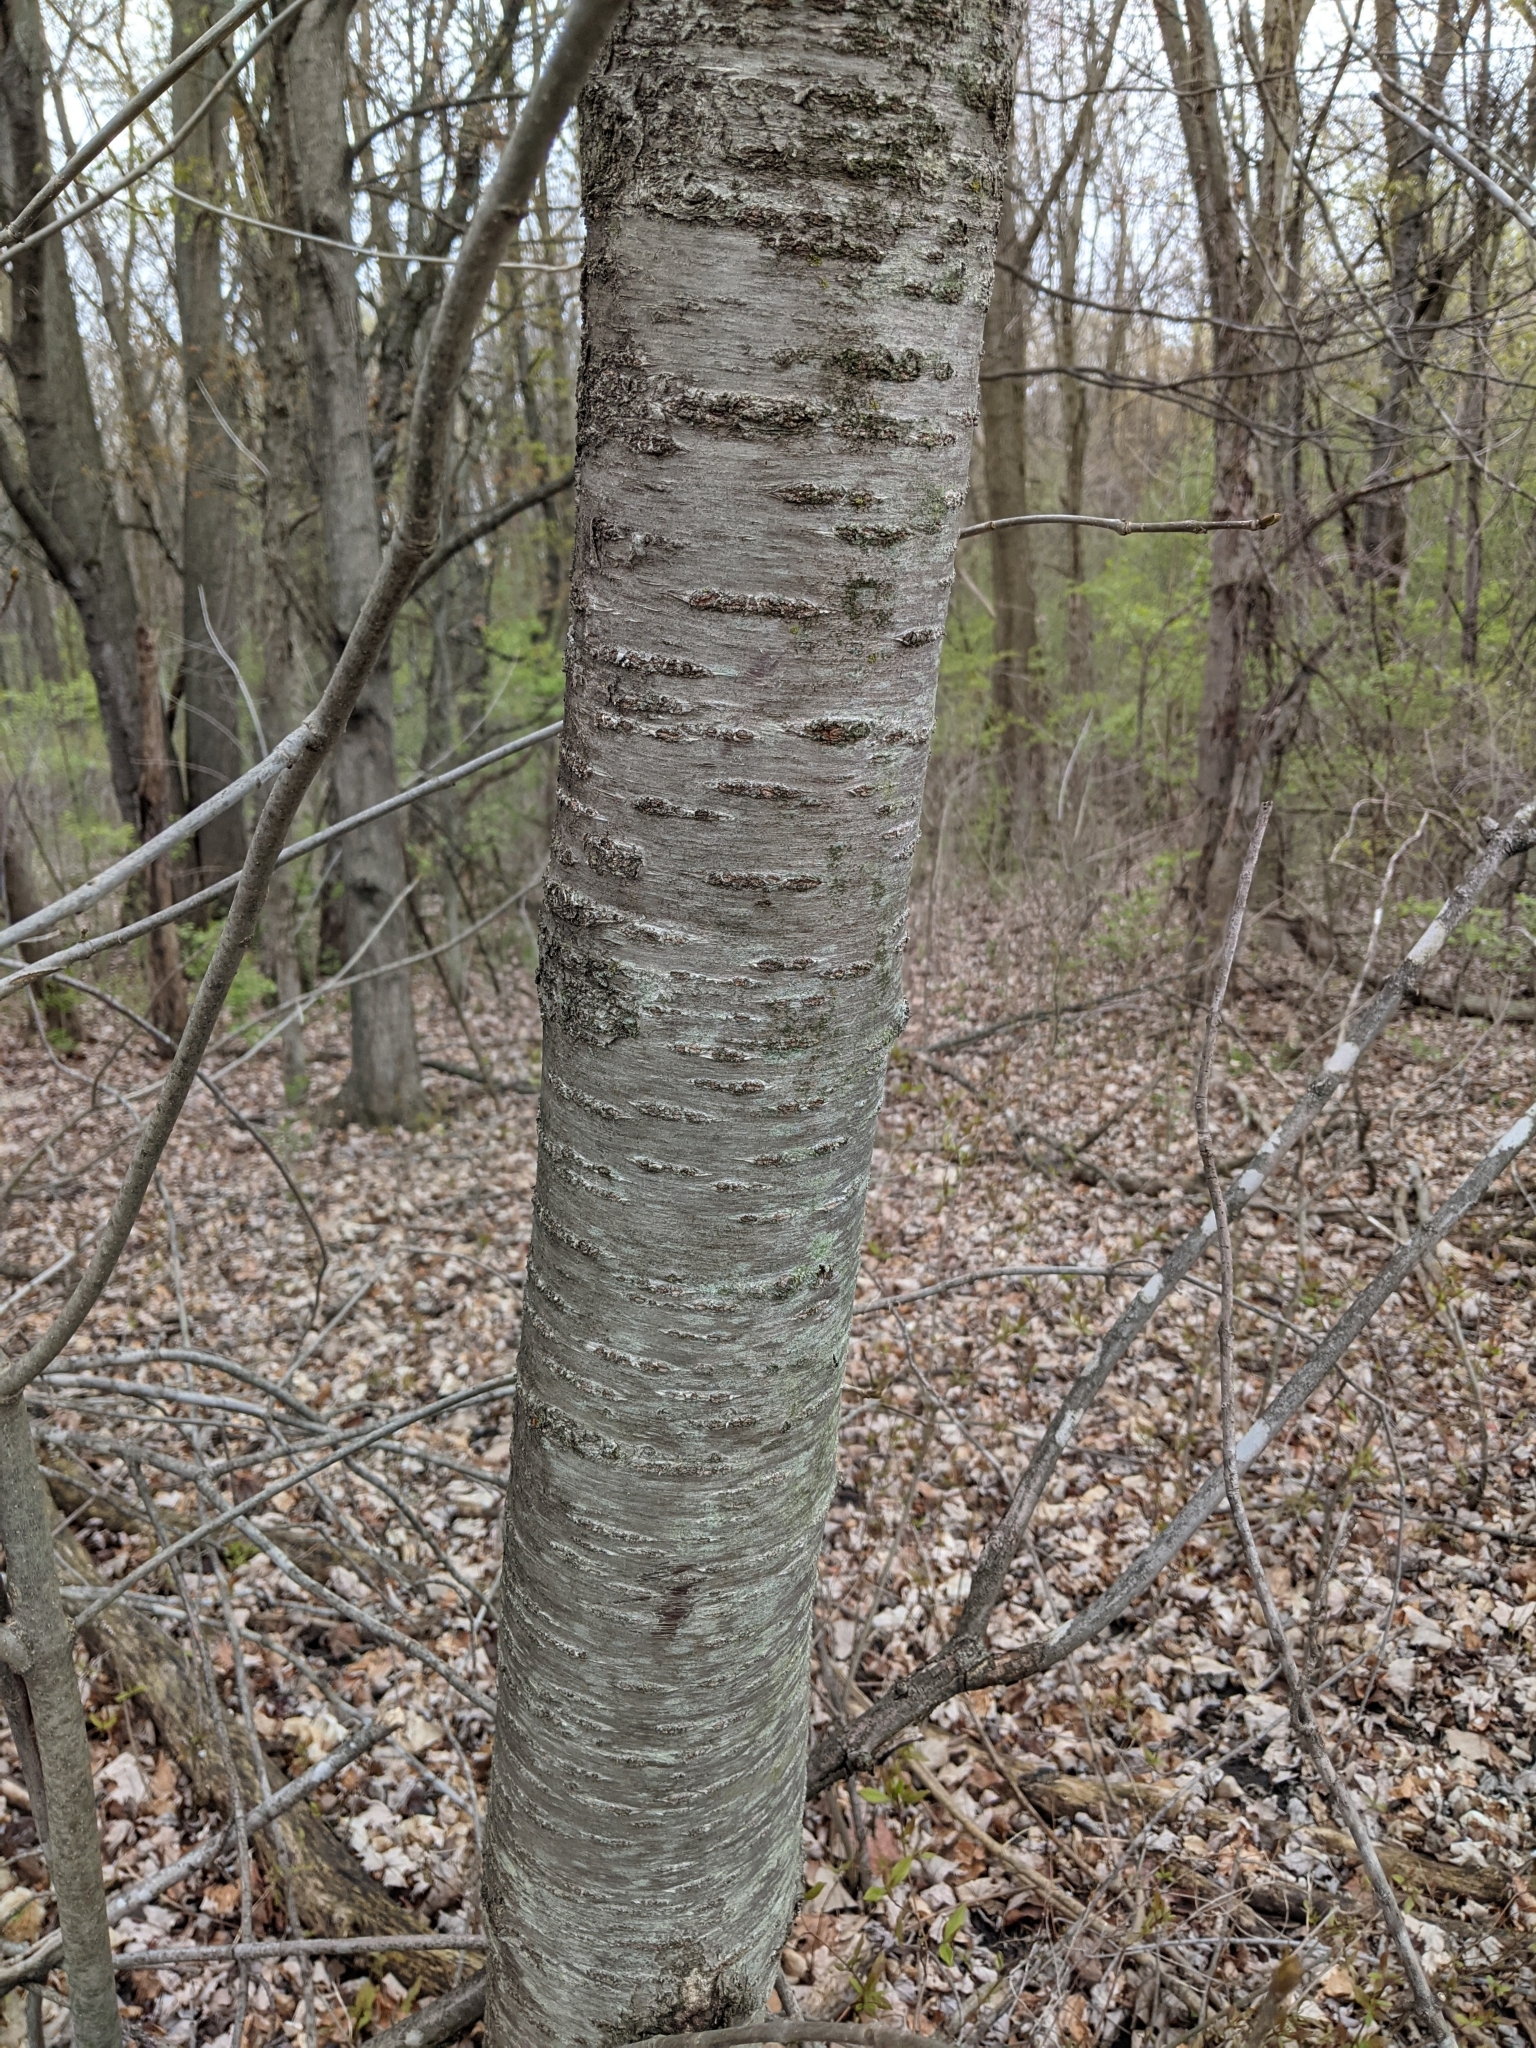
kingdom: Plantae
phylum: Tracheophyta
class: Magnoliopsida
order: Rosales
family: Rosaceae
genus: Prunus
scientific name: Prunus avium
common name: Sweet cherry
